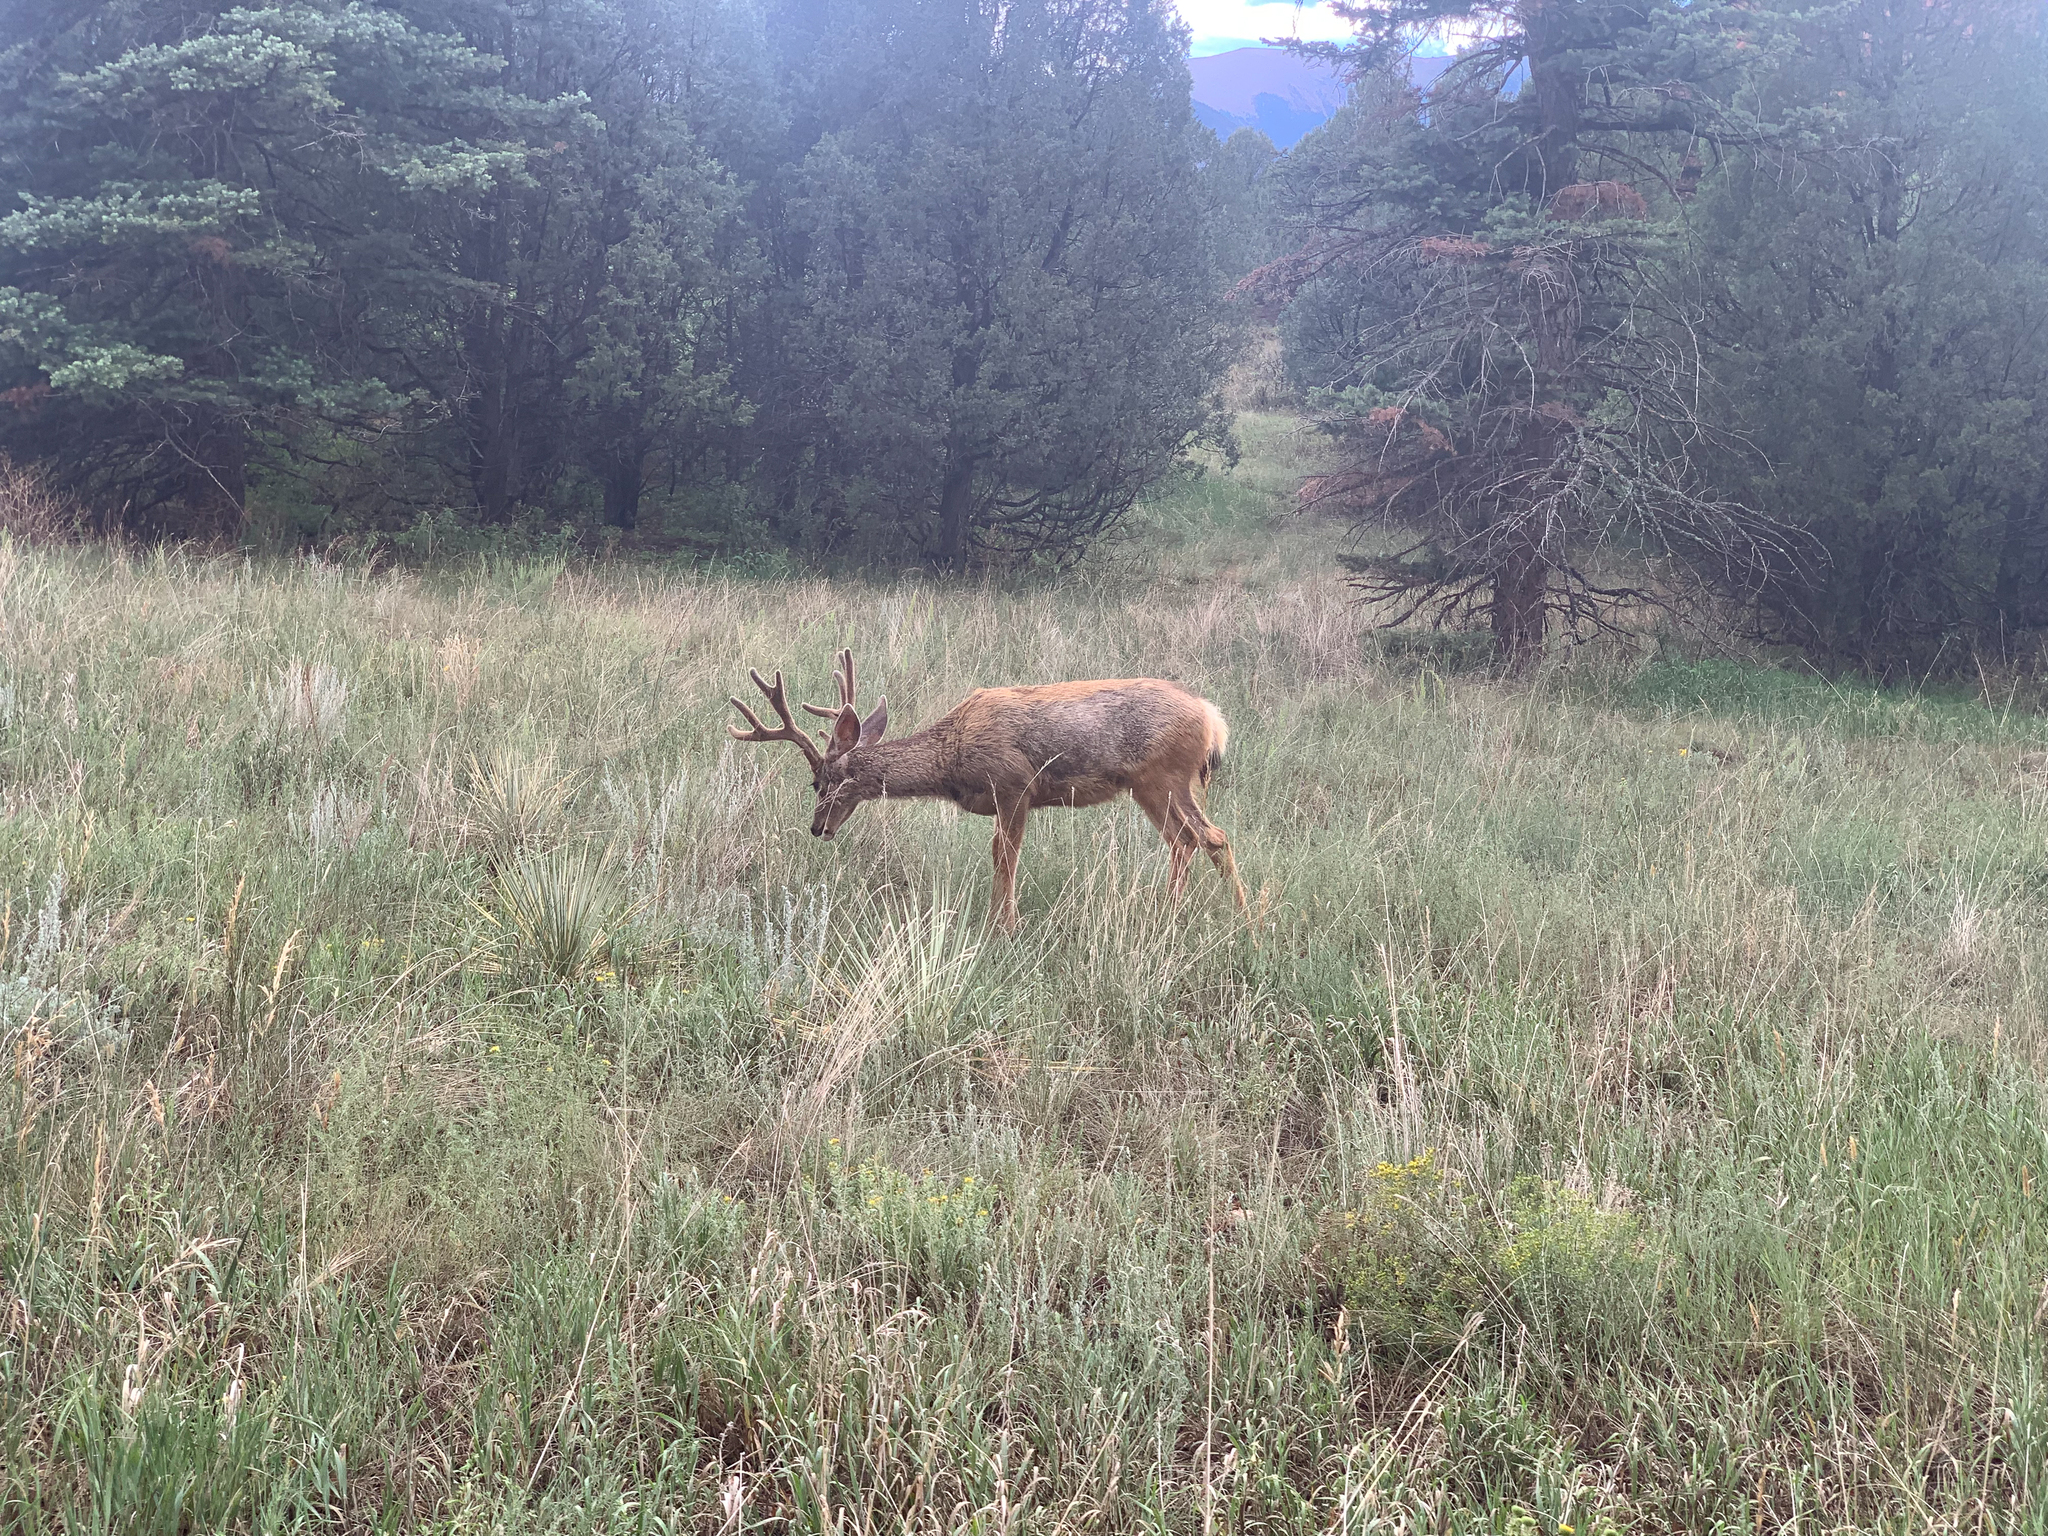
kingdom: Animalia
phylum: Chordata
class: Mammalia
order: Artiodactyla
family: Cervidae
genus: Odocoileus
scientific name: Odocoileus hemionus
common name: Mule deer
